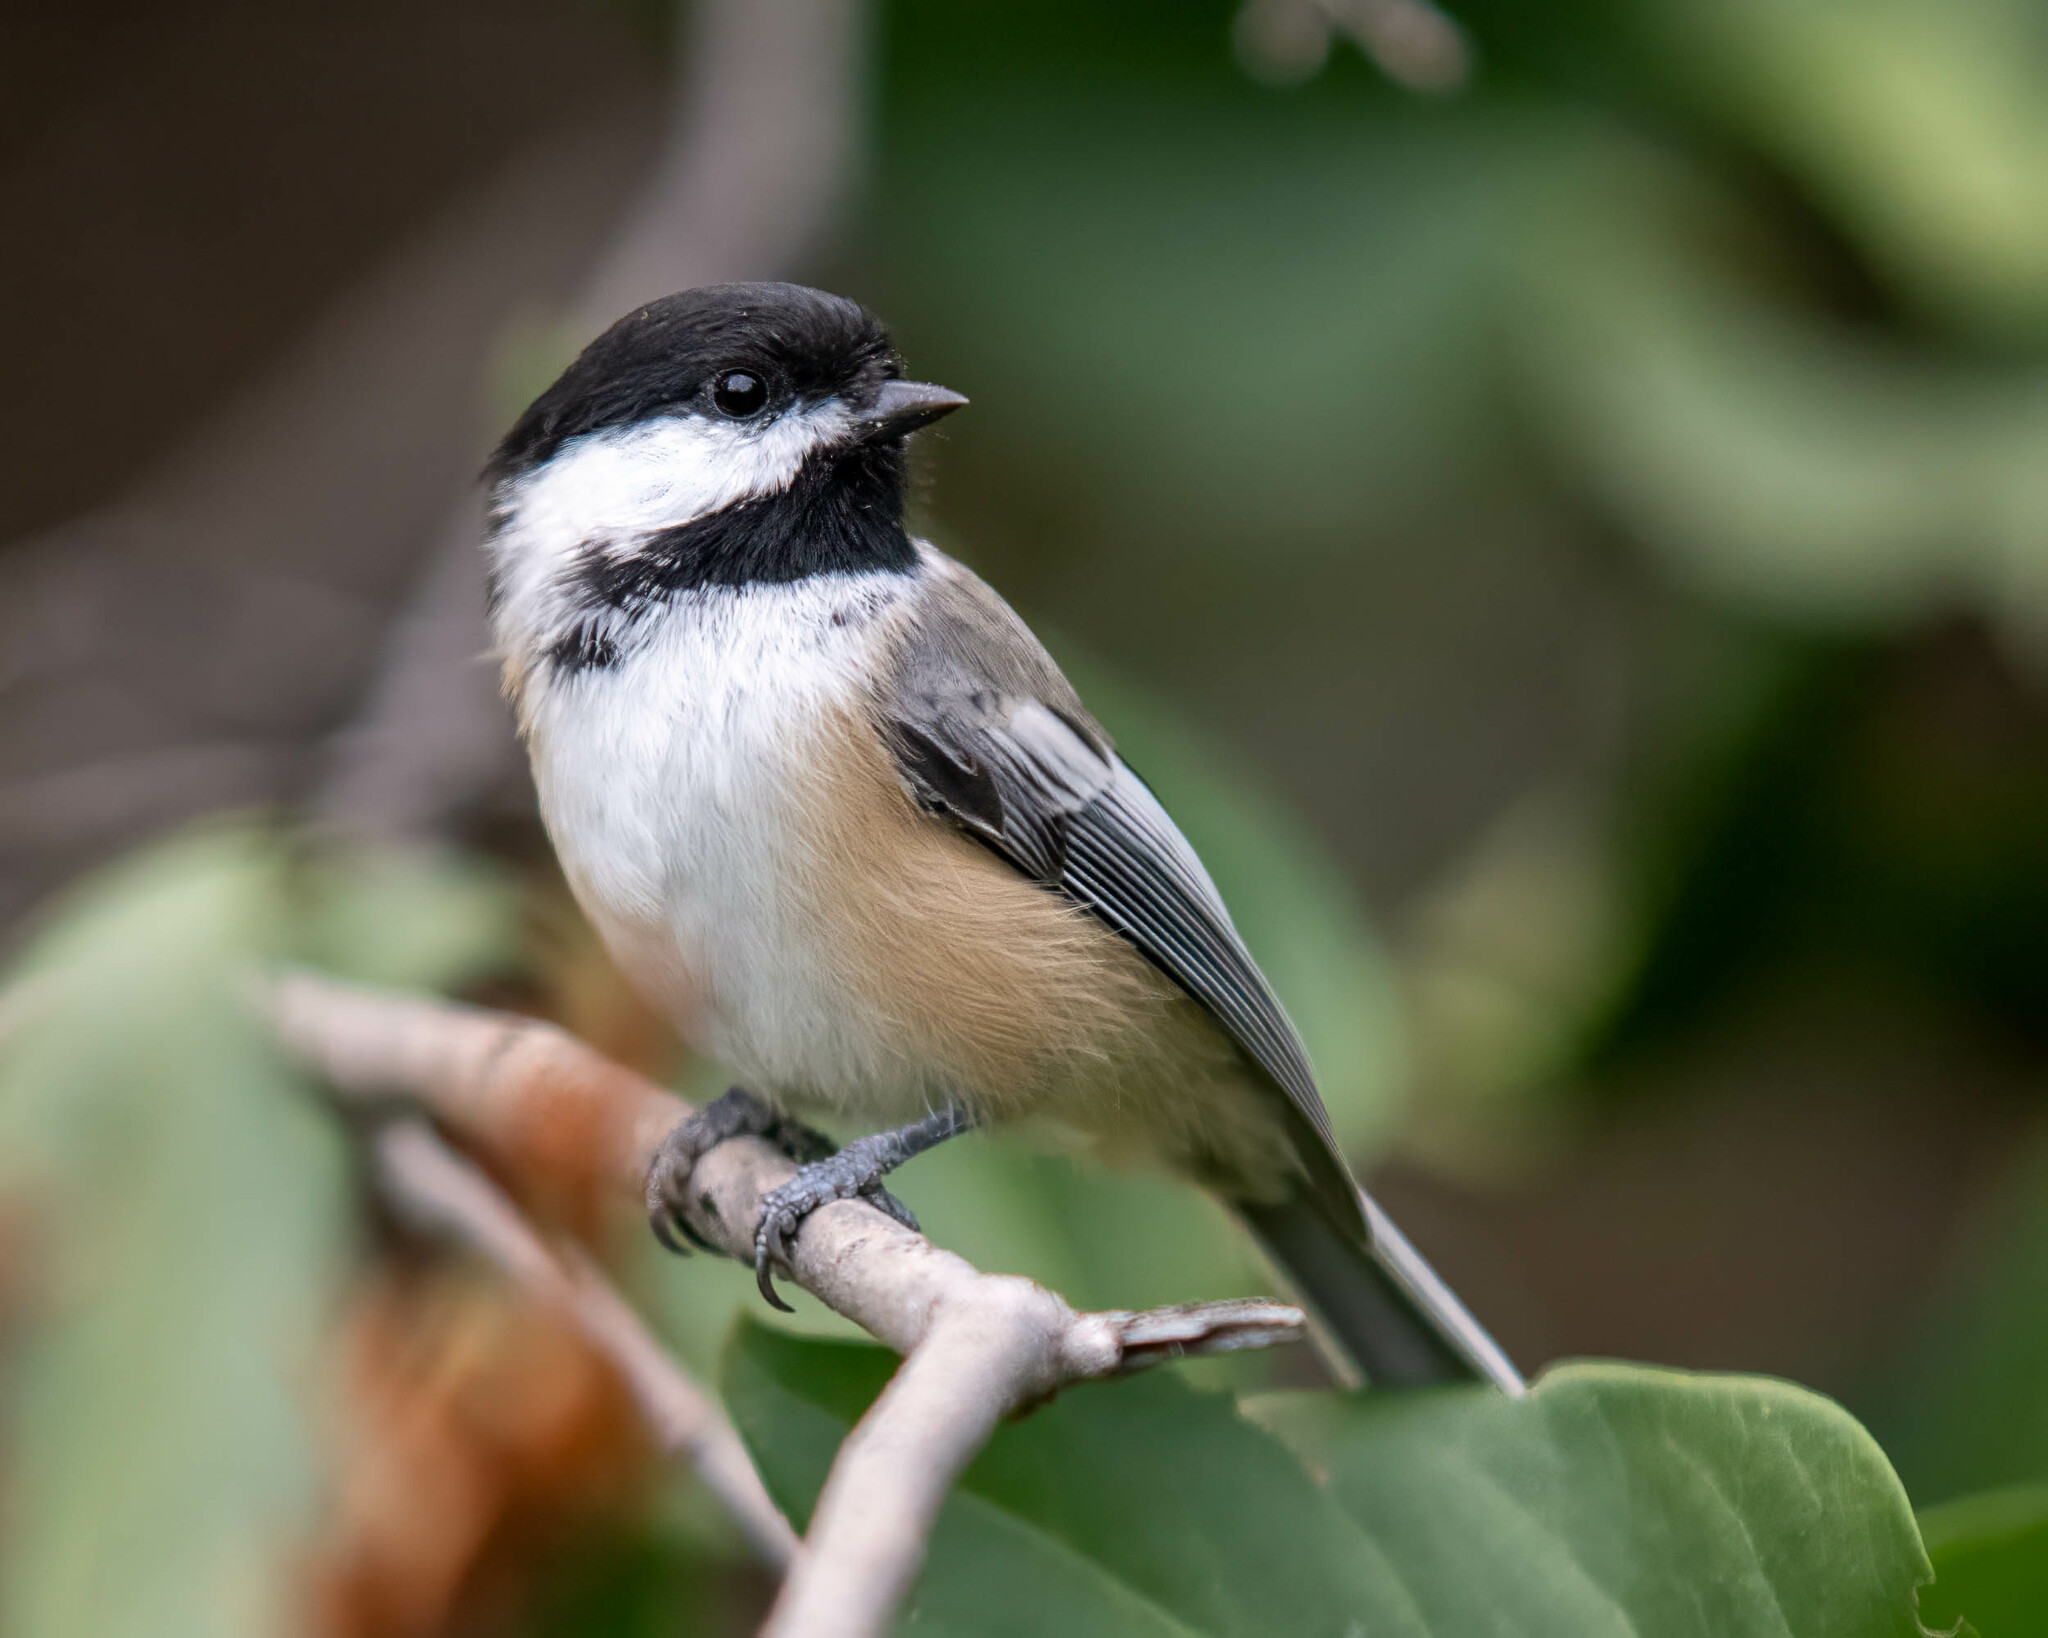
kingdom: Animalia
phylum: Chordata
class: Aves
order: Passeriformes
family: Paridae
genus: Poecile
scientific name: Poecile atricapillus
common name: Black-capped chickadee
